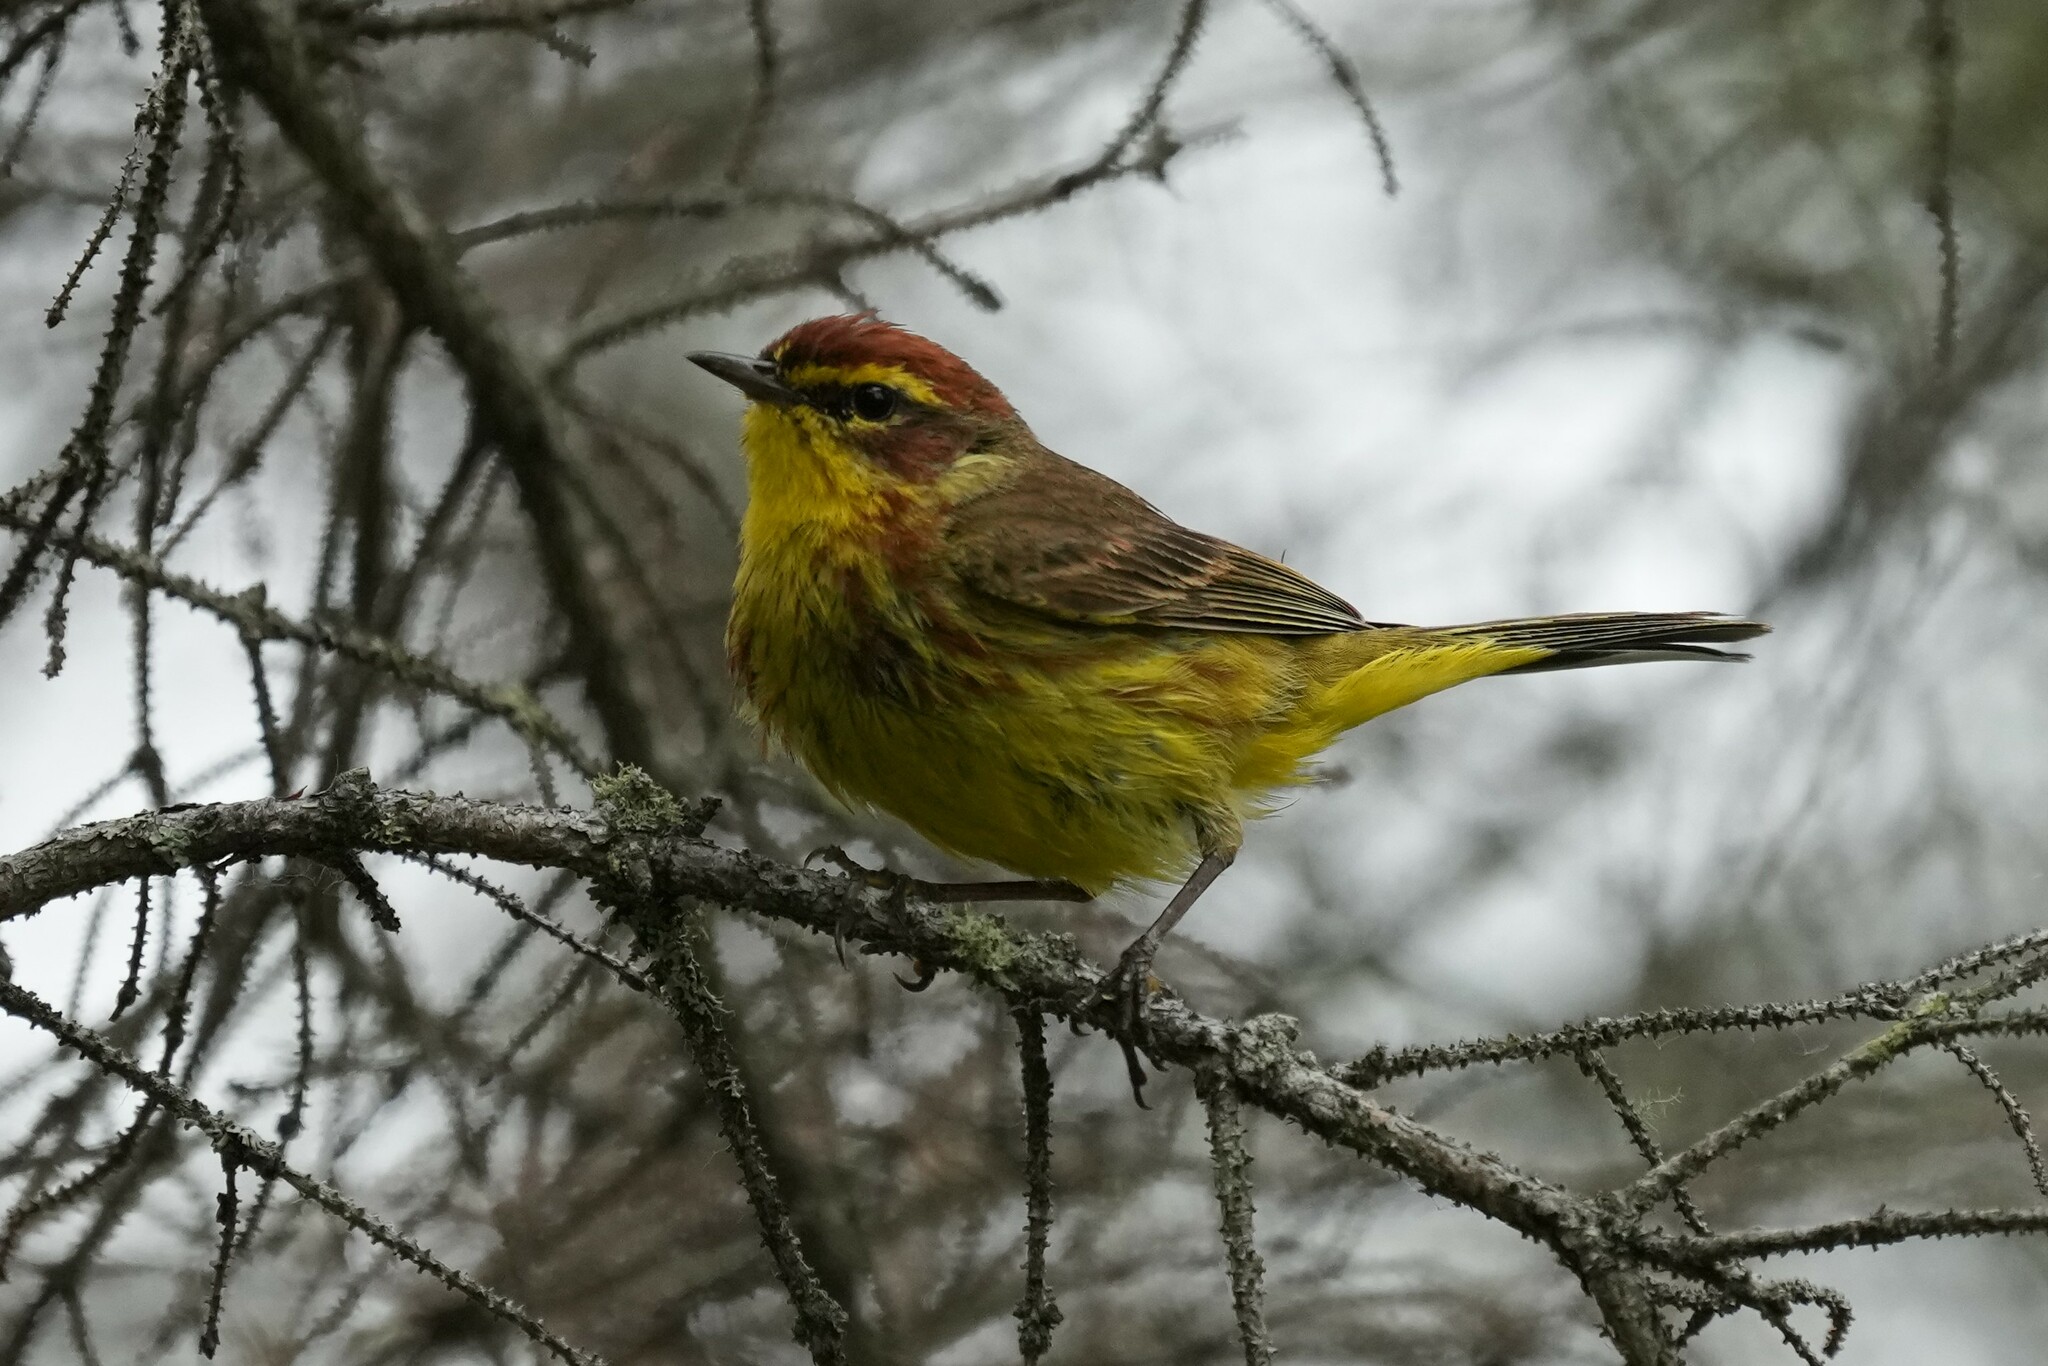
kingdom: Animalia
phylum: Chordata
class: Aves
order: Passeriformes
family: Parulidae
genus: Setophaga
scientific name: Setophaga palmarum
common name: Palm warbler
